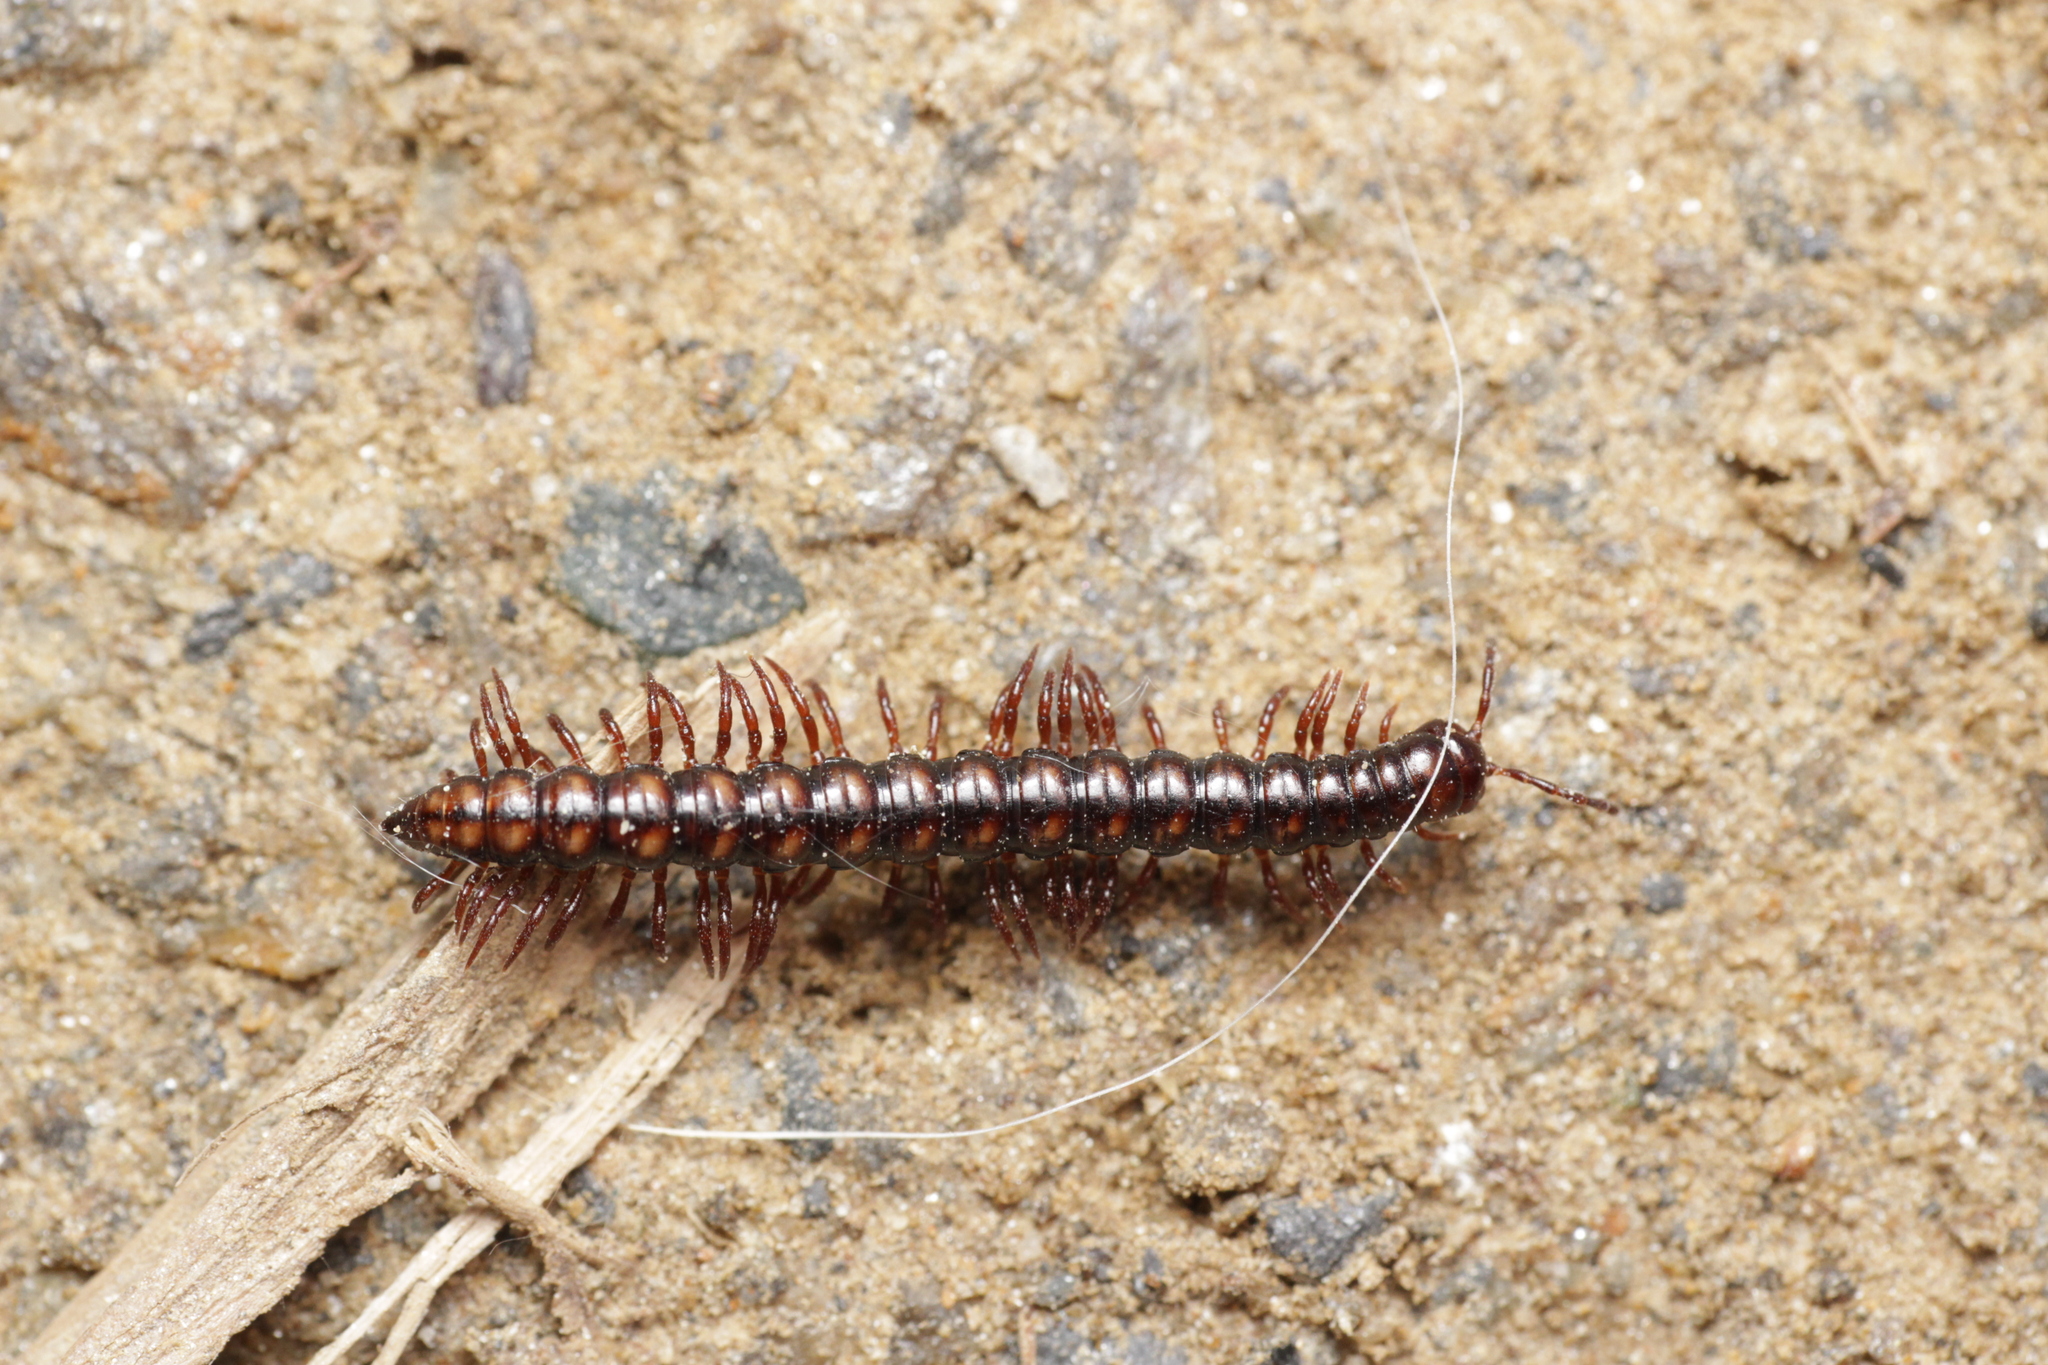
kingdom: Animalia
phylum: Arthropoda
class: Diplopoda
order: Polydesmida
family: Paradoxosomatidae
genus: Strongylosoma
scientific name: Strongylosoma stigmatosus
